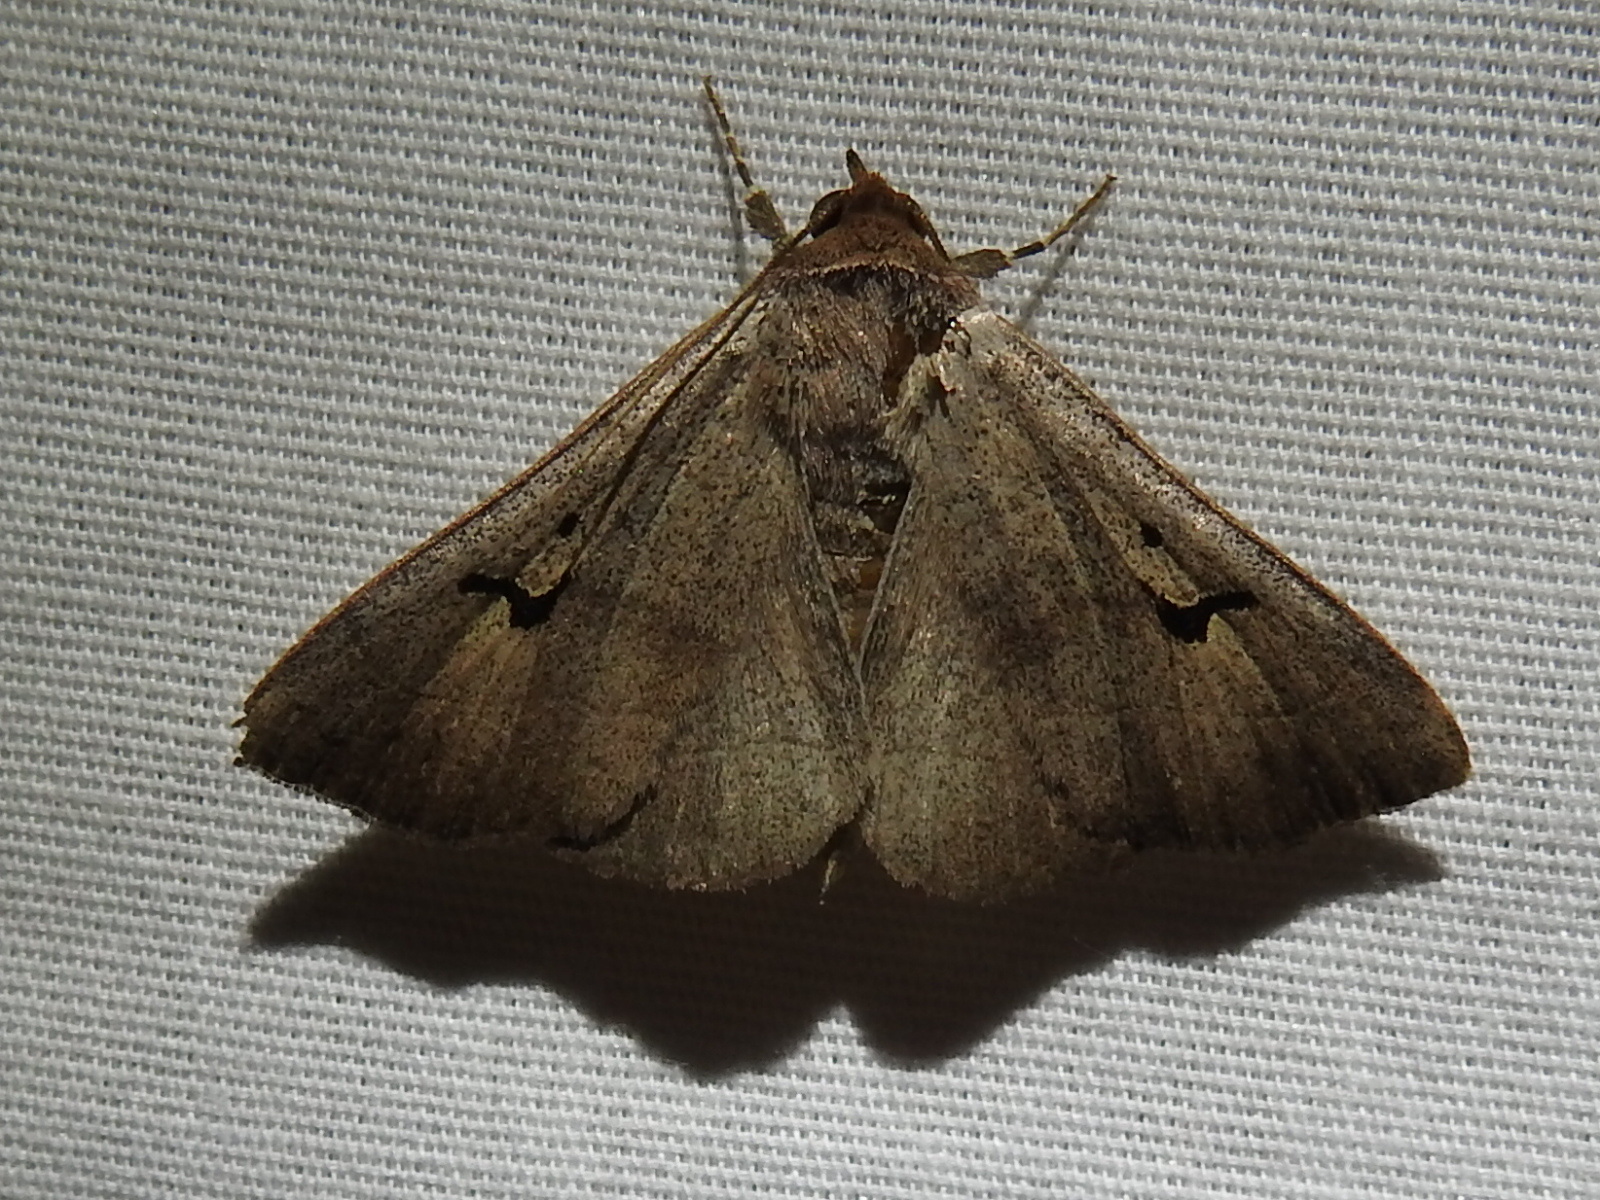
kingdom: Animalia
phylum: Arthropoda
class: Insecta
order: Lepidoptera
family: Erebidae
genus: Panopoda
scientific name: Panopoda carneicosta
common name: Brown panopoda moth
